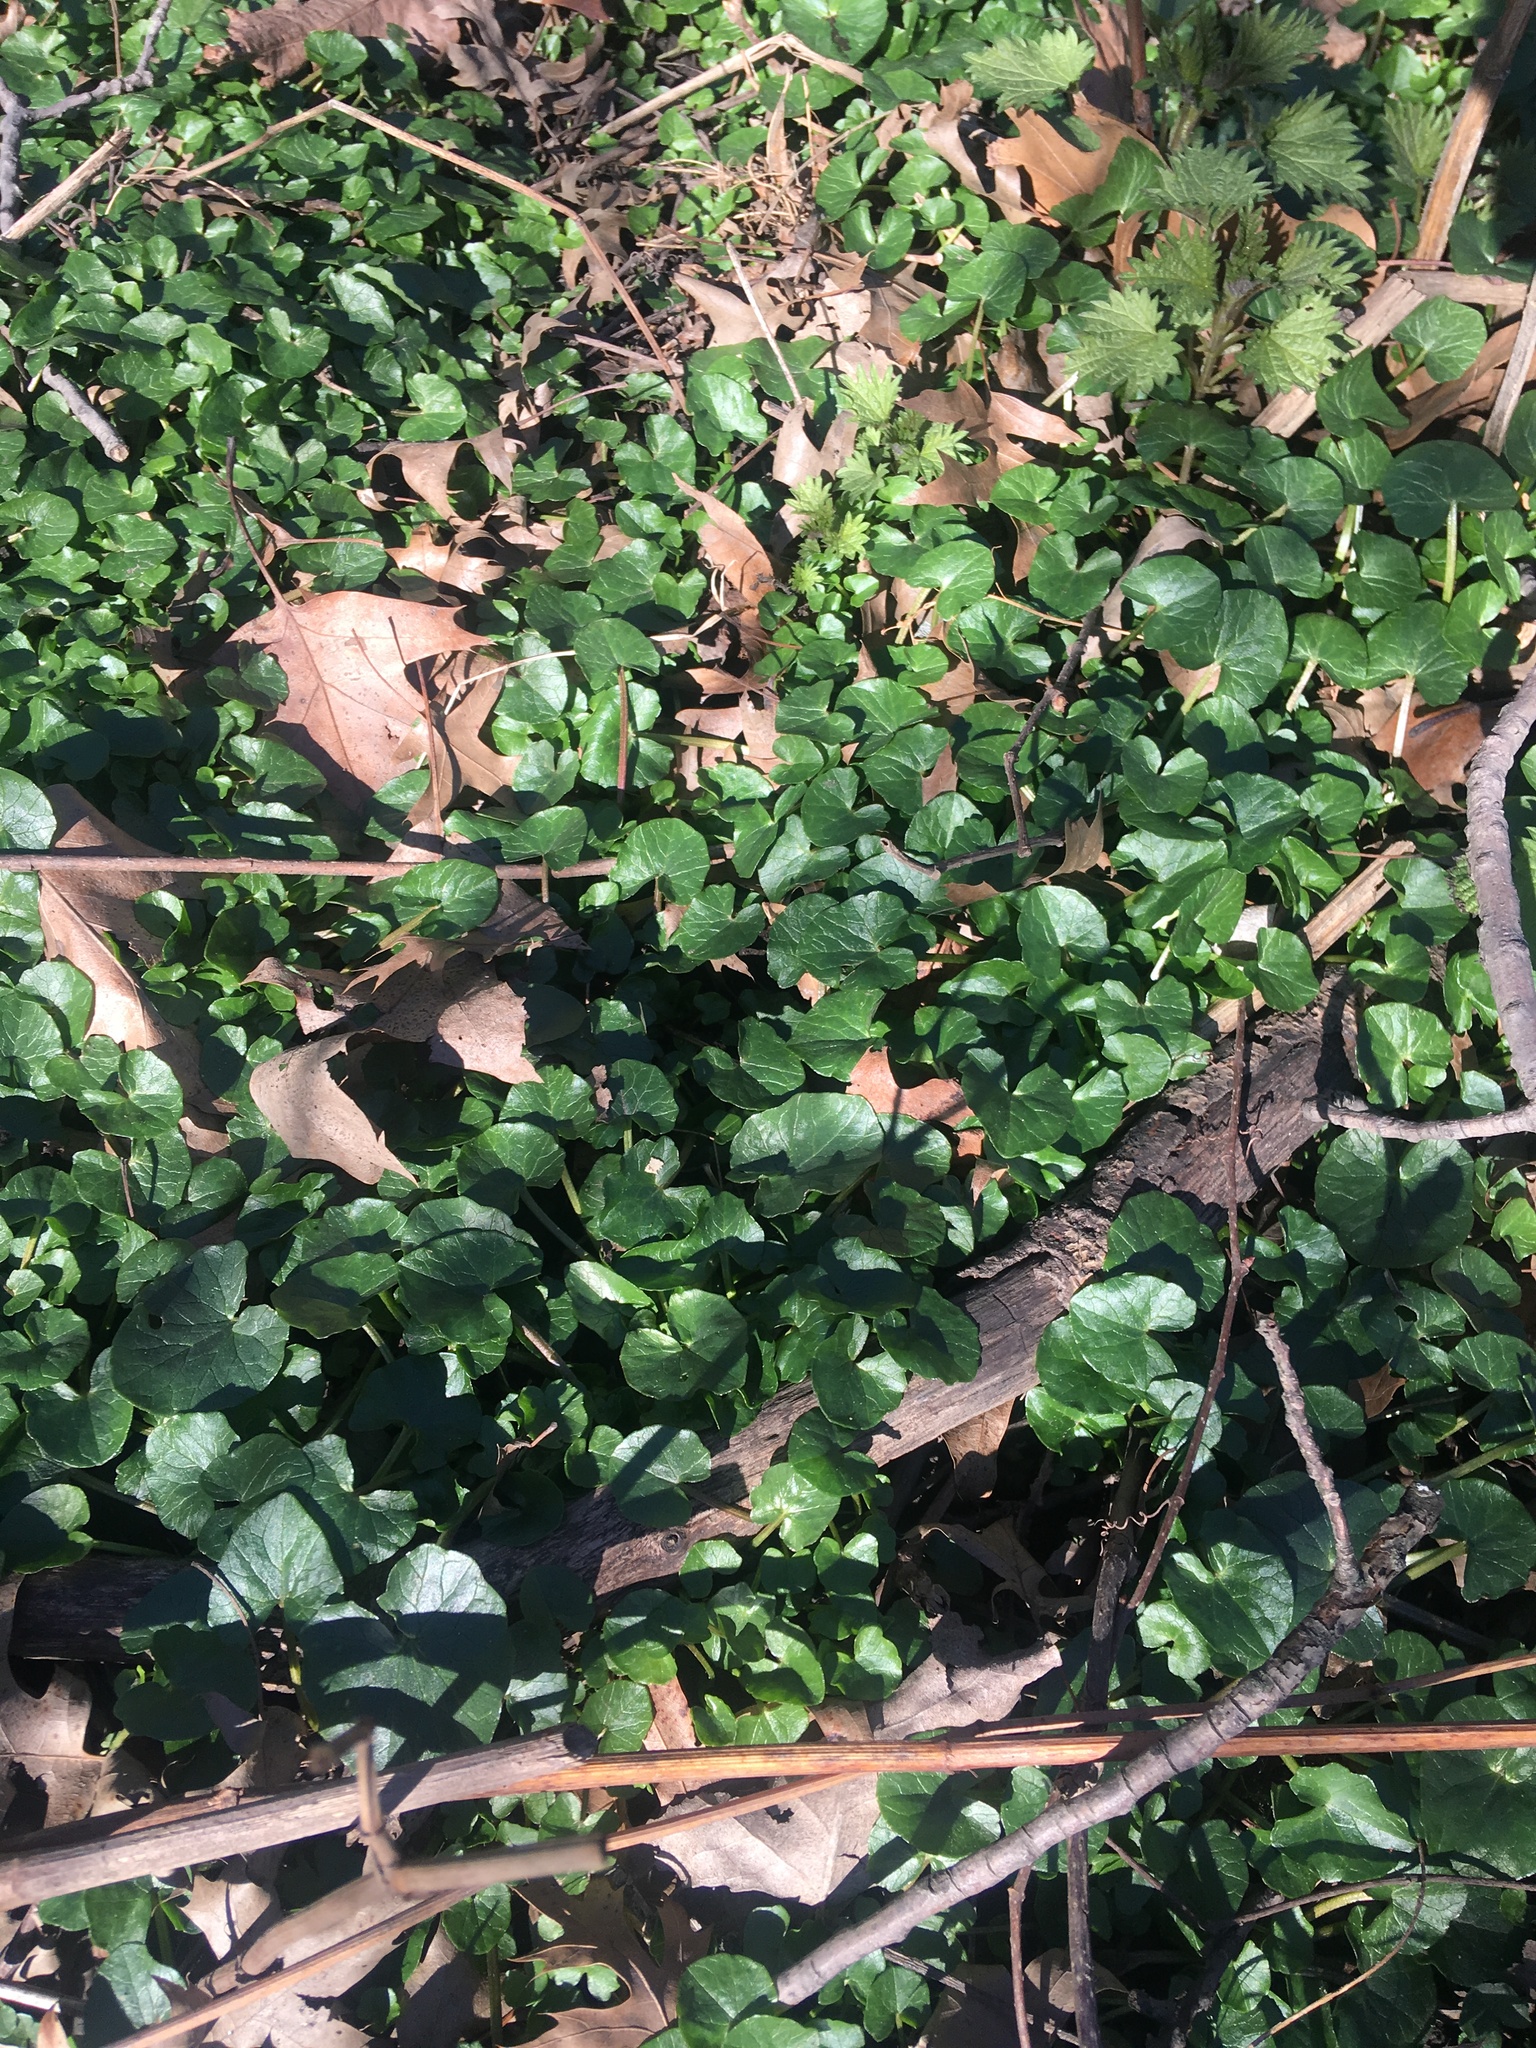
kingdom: Plantae
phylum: Tracheophyta
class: Magnoliopsida
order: Ranunculales
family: Ranunculaceae
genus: Ficaria
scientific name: Ficaria verna
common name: Lesser celandine
